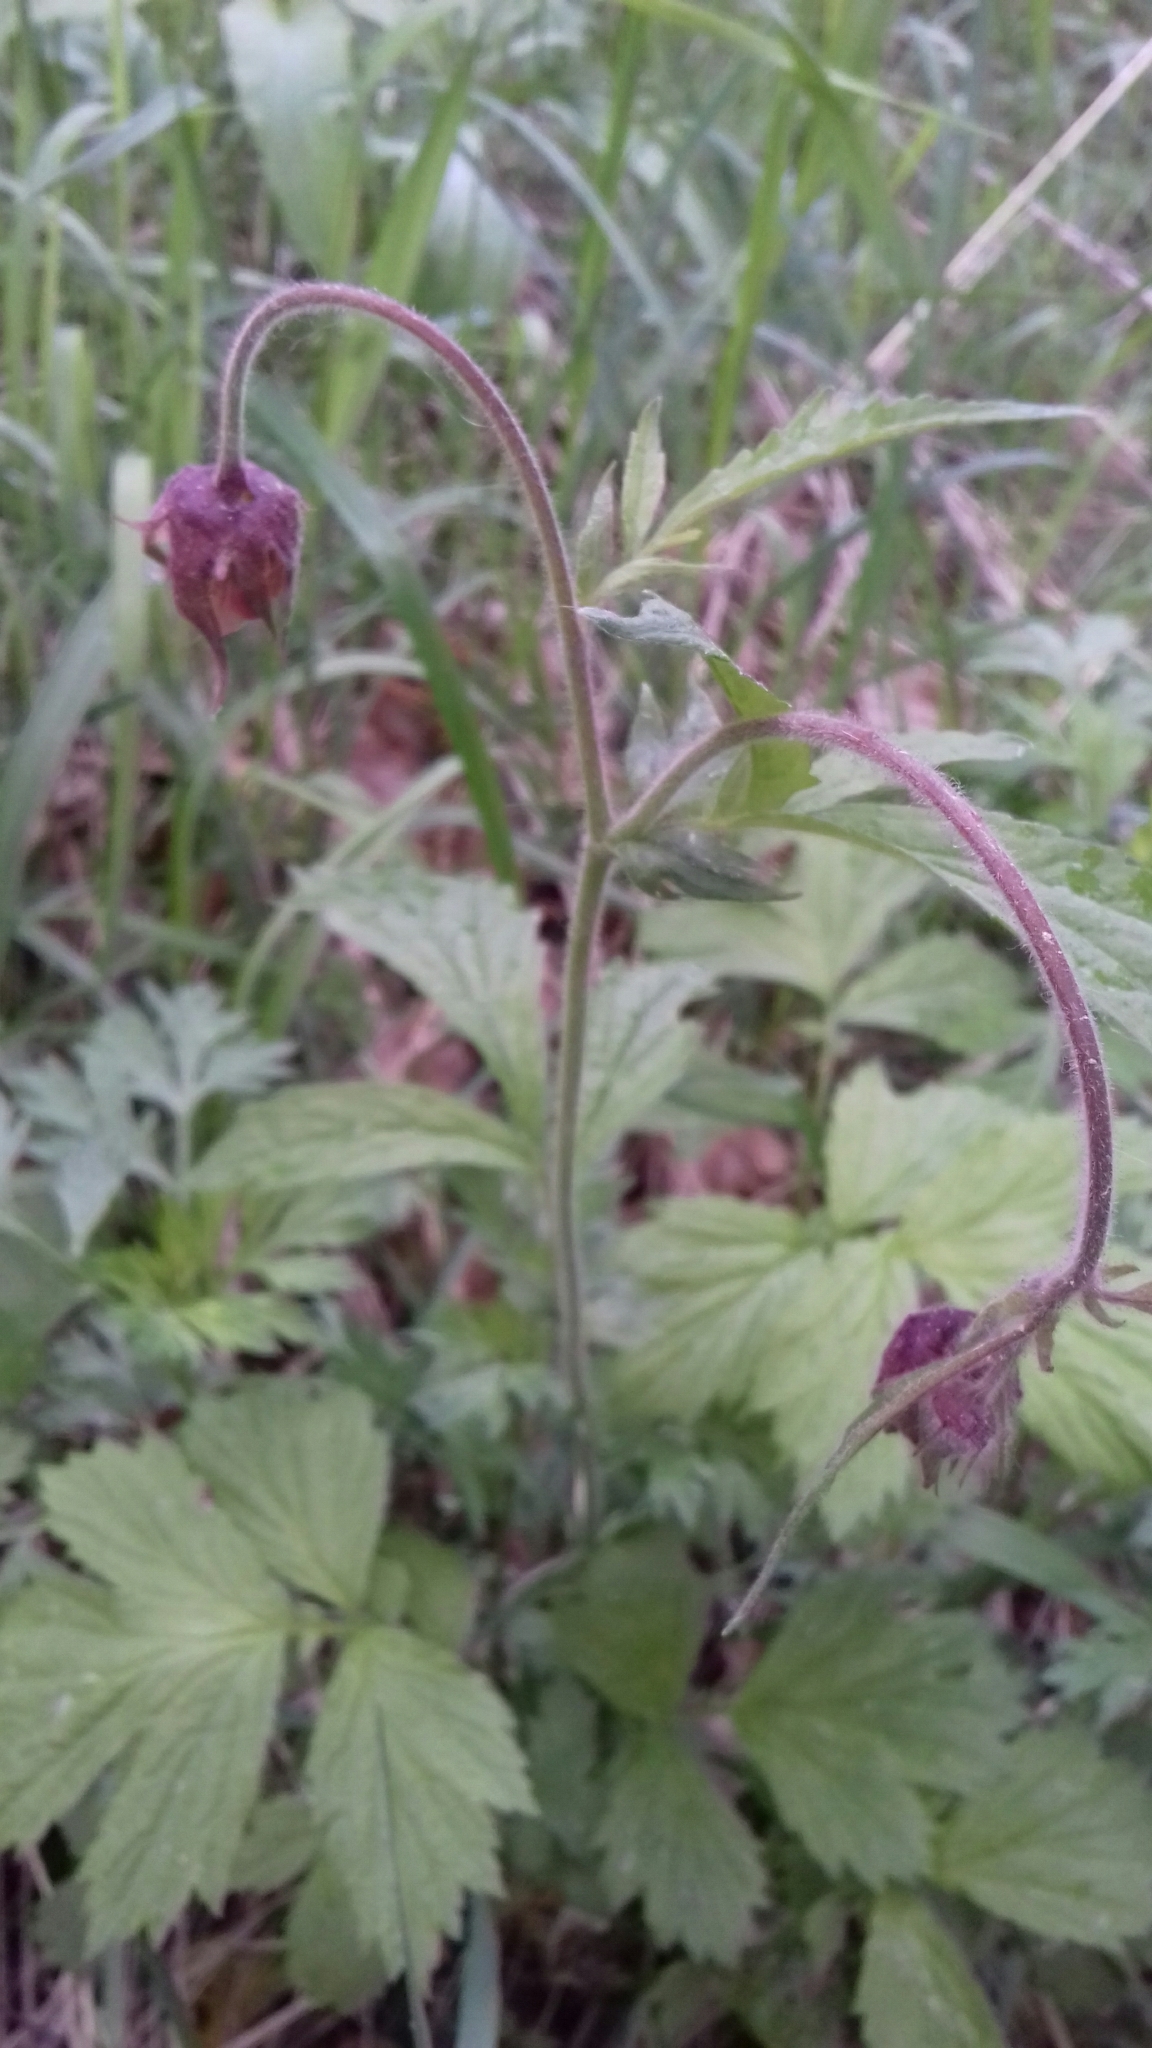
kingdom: Plantae
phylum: Tracheophyta
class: Magnoliopsida
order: Rosales
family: Rosaceae
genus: Geum
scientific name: Geum rivale
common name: Water avens
